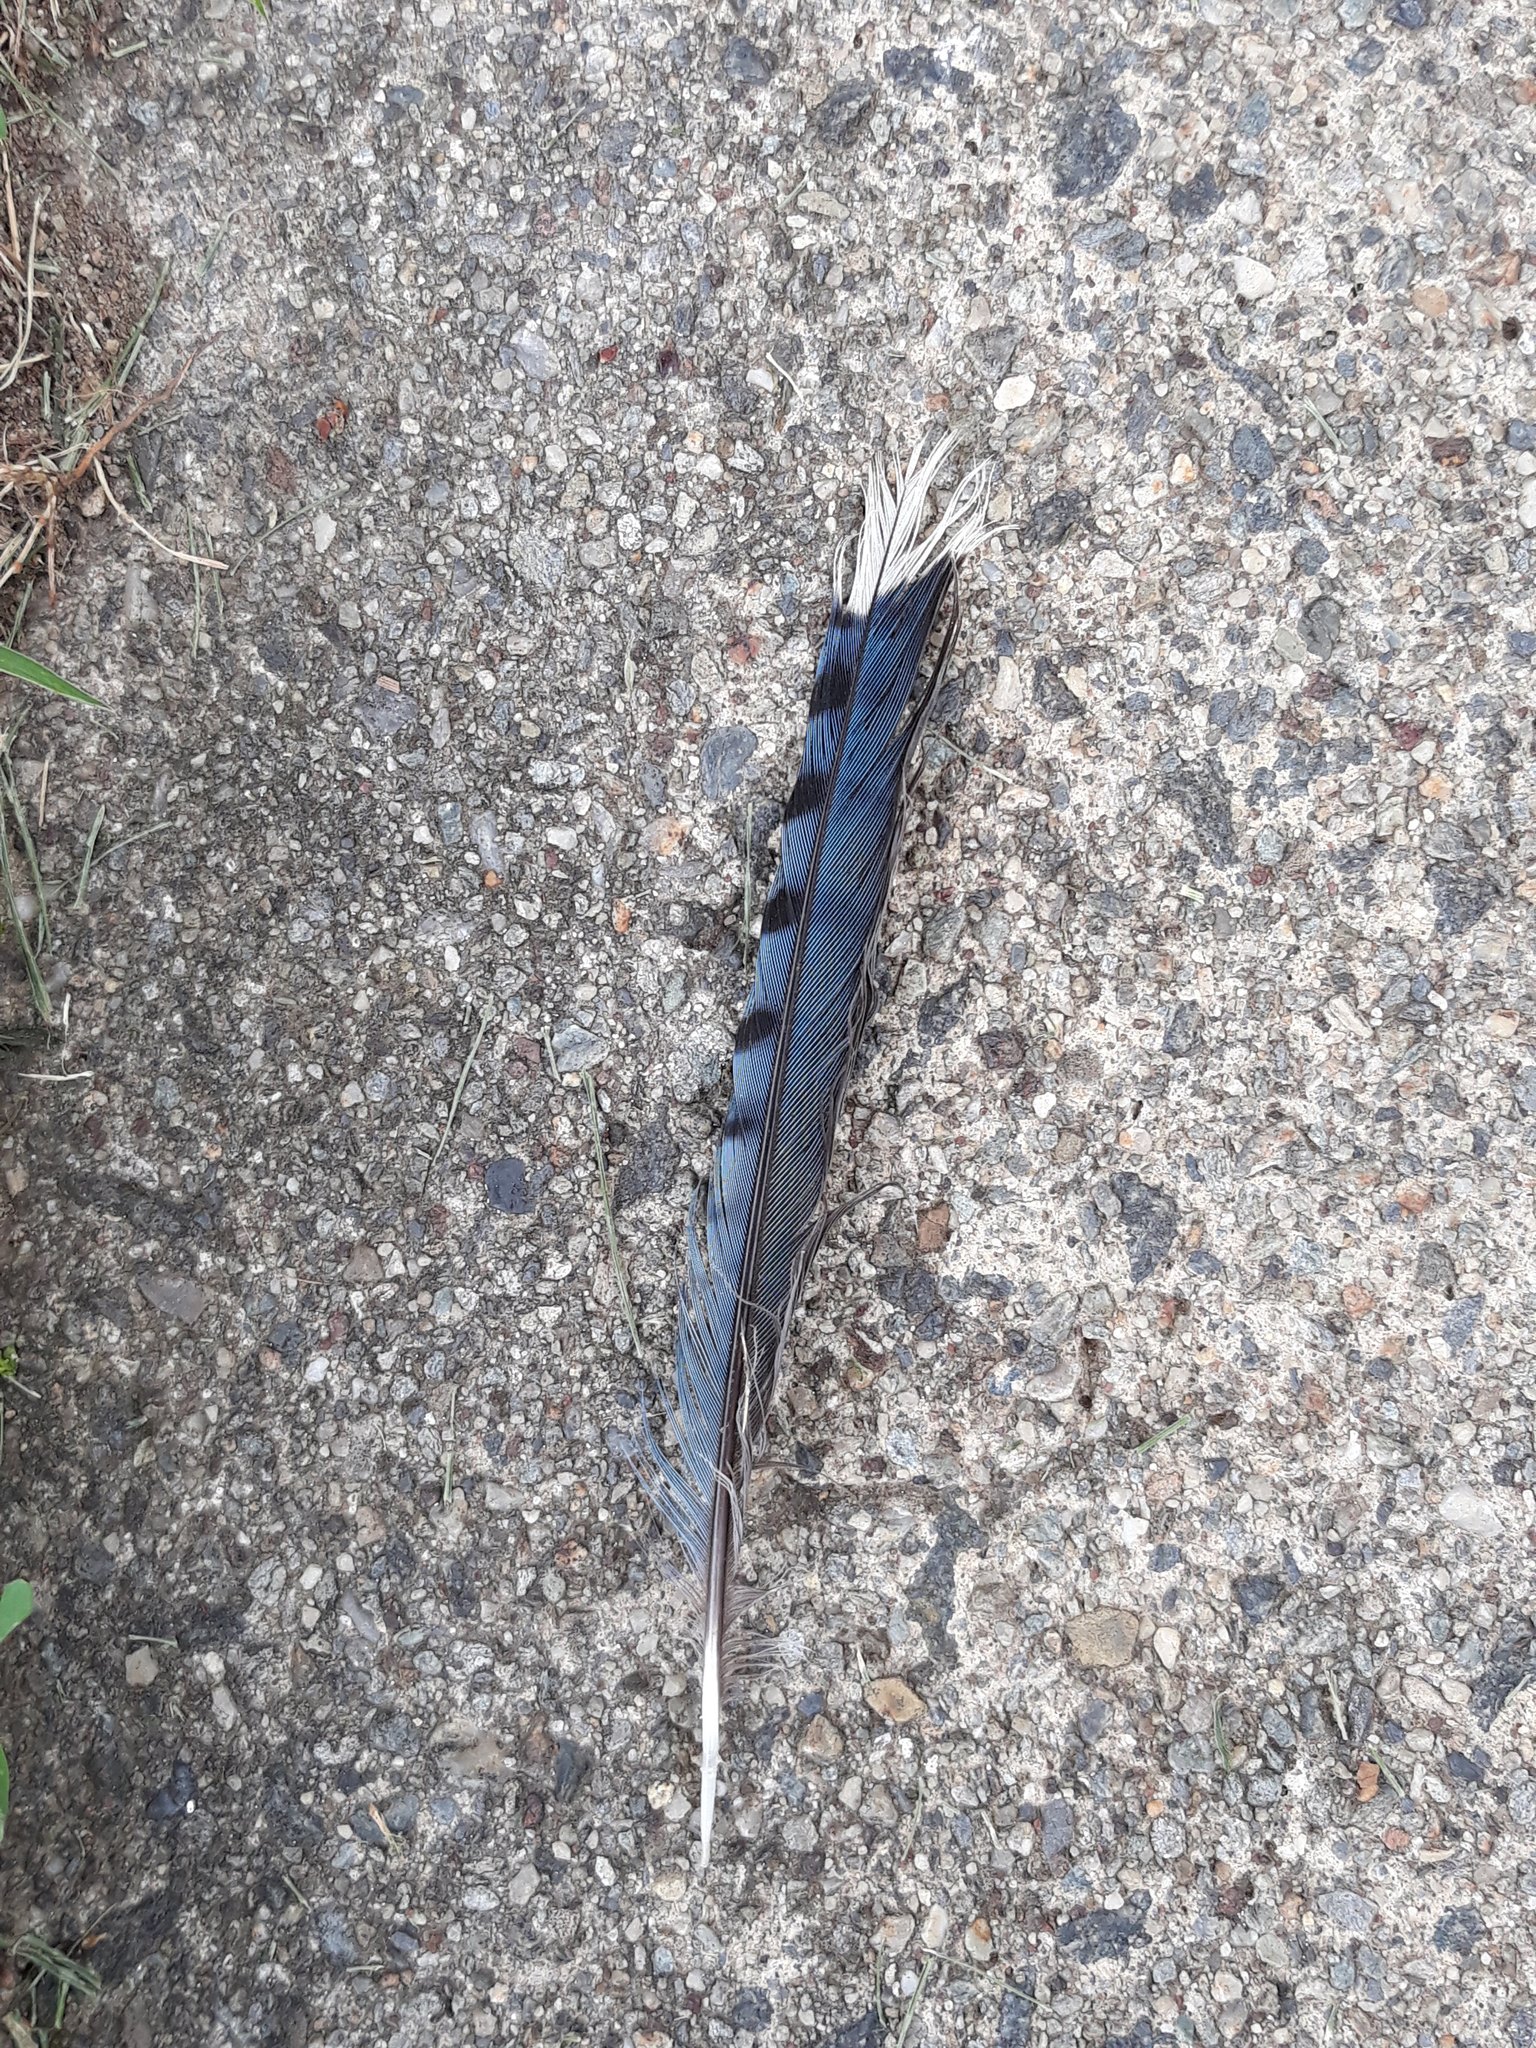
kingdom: Animalia
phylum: Chordata
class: Aves
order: Passeriformes
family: Corvidae
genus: Cyanocitta
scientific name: Cyanocitta cristata
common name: Blue jay
